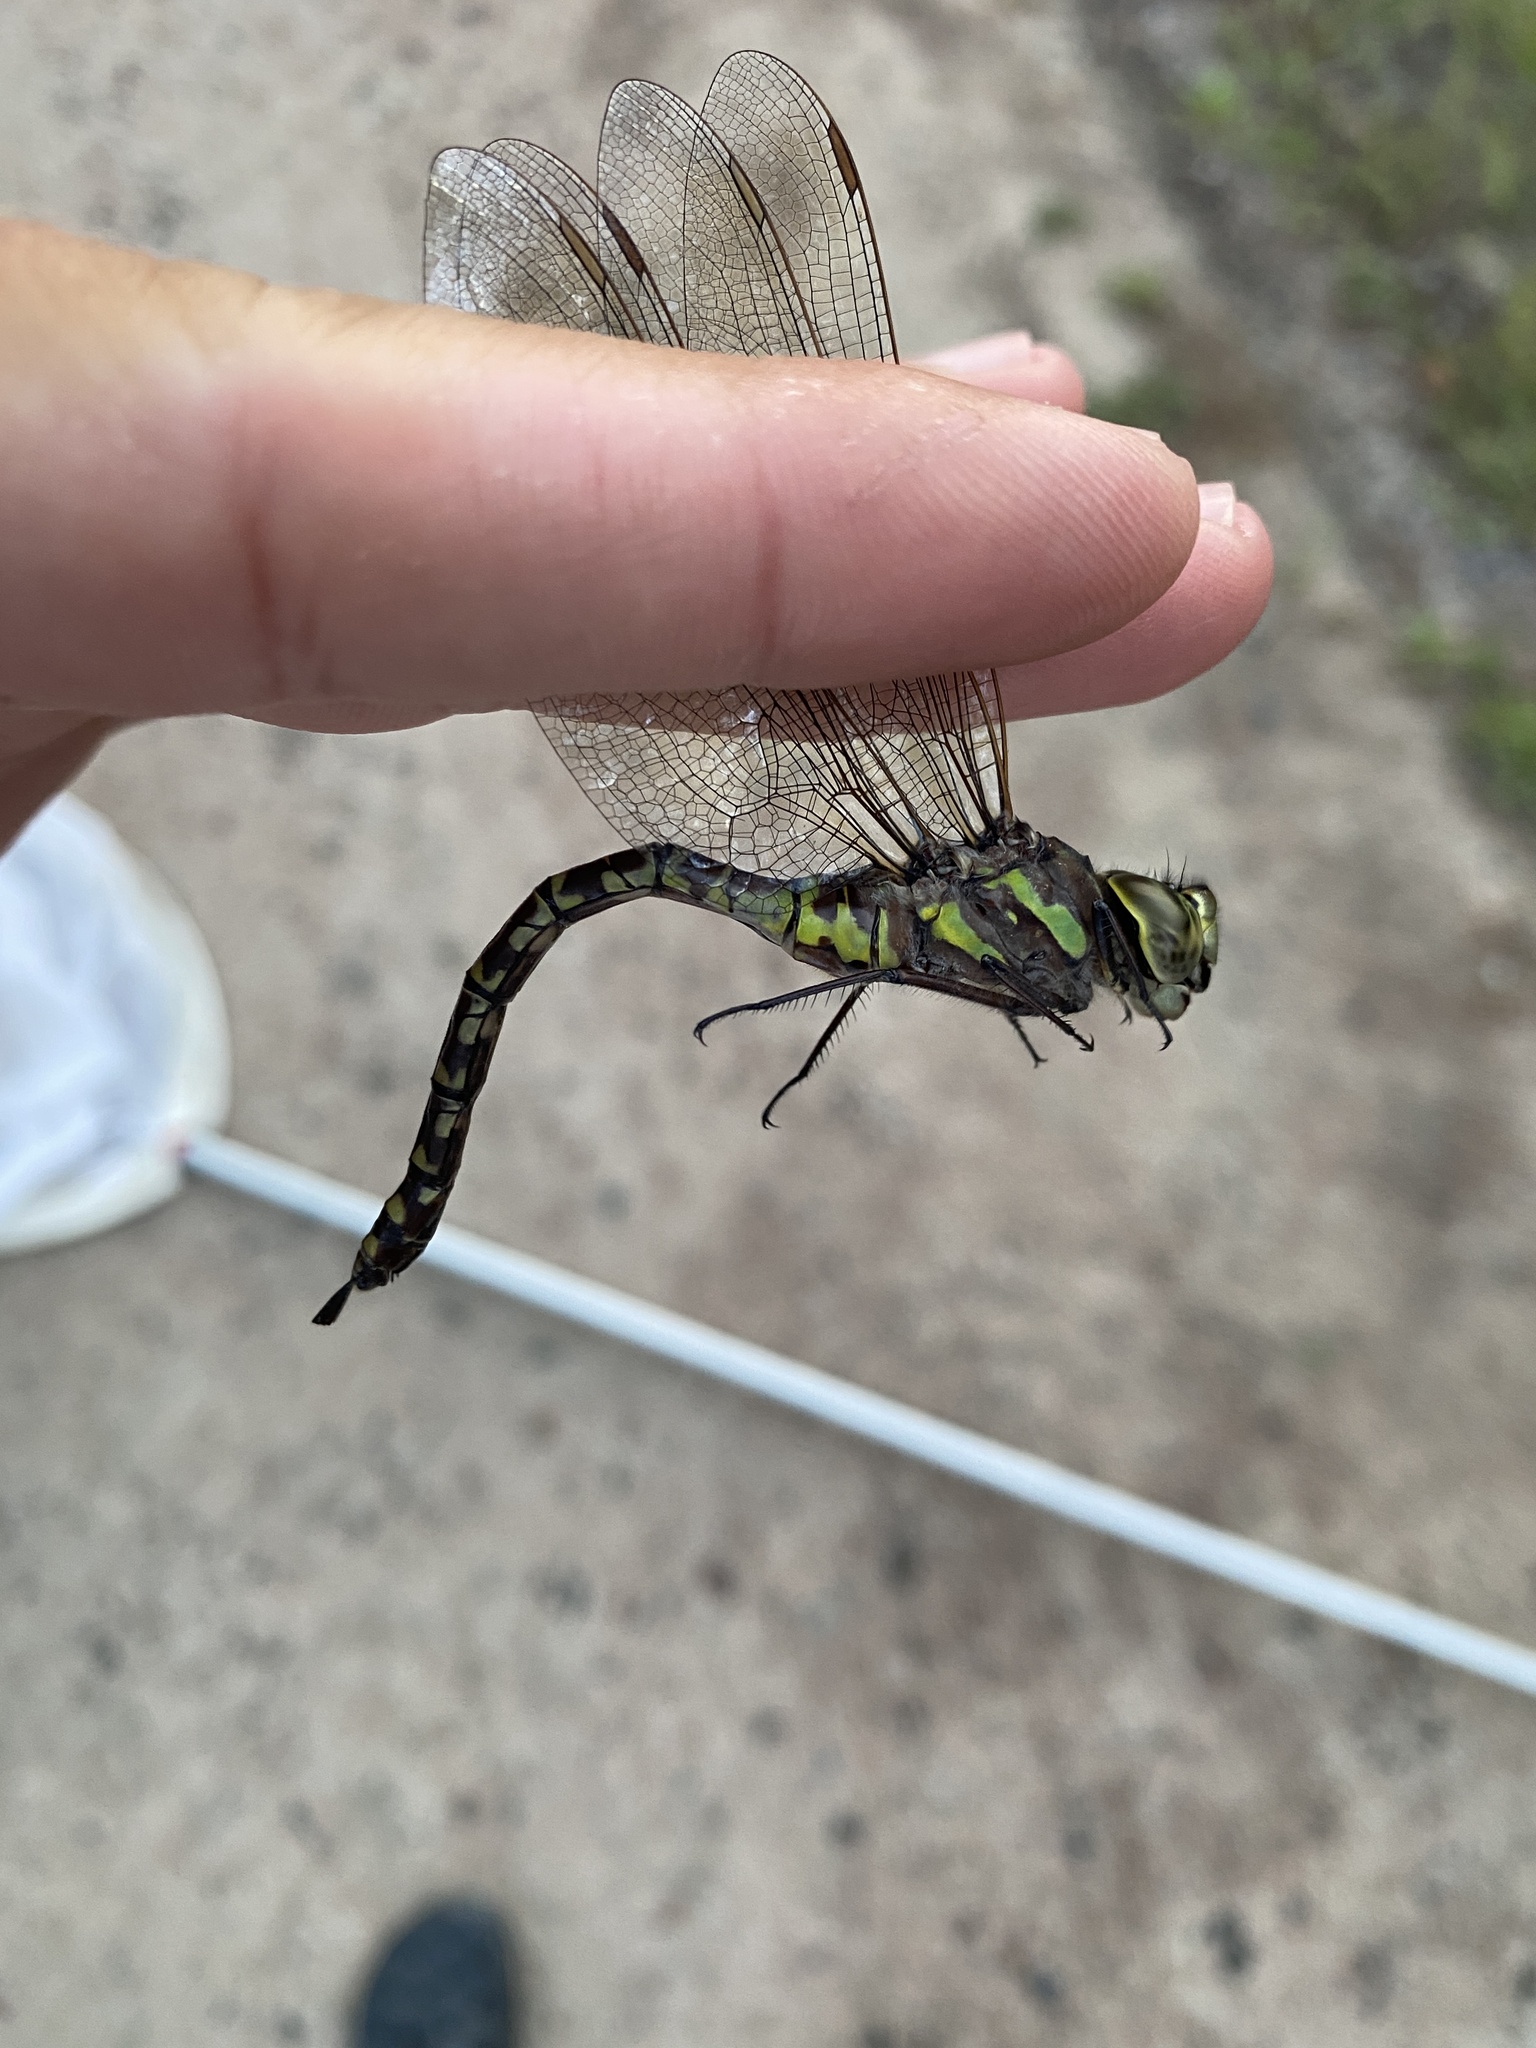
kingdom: Animalia
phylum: Arthropoda
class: Insecta
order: Odonata
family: Aeshnidae
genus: Aeshna
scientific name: Aeshna canadensis
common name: Canada darner
